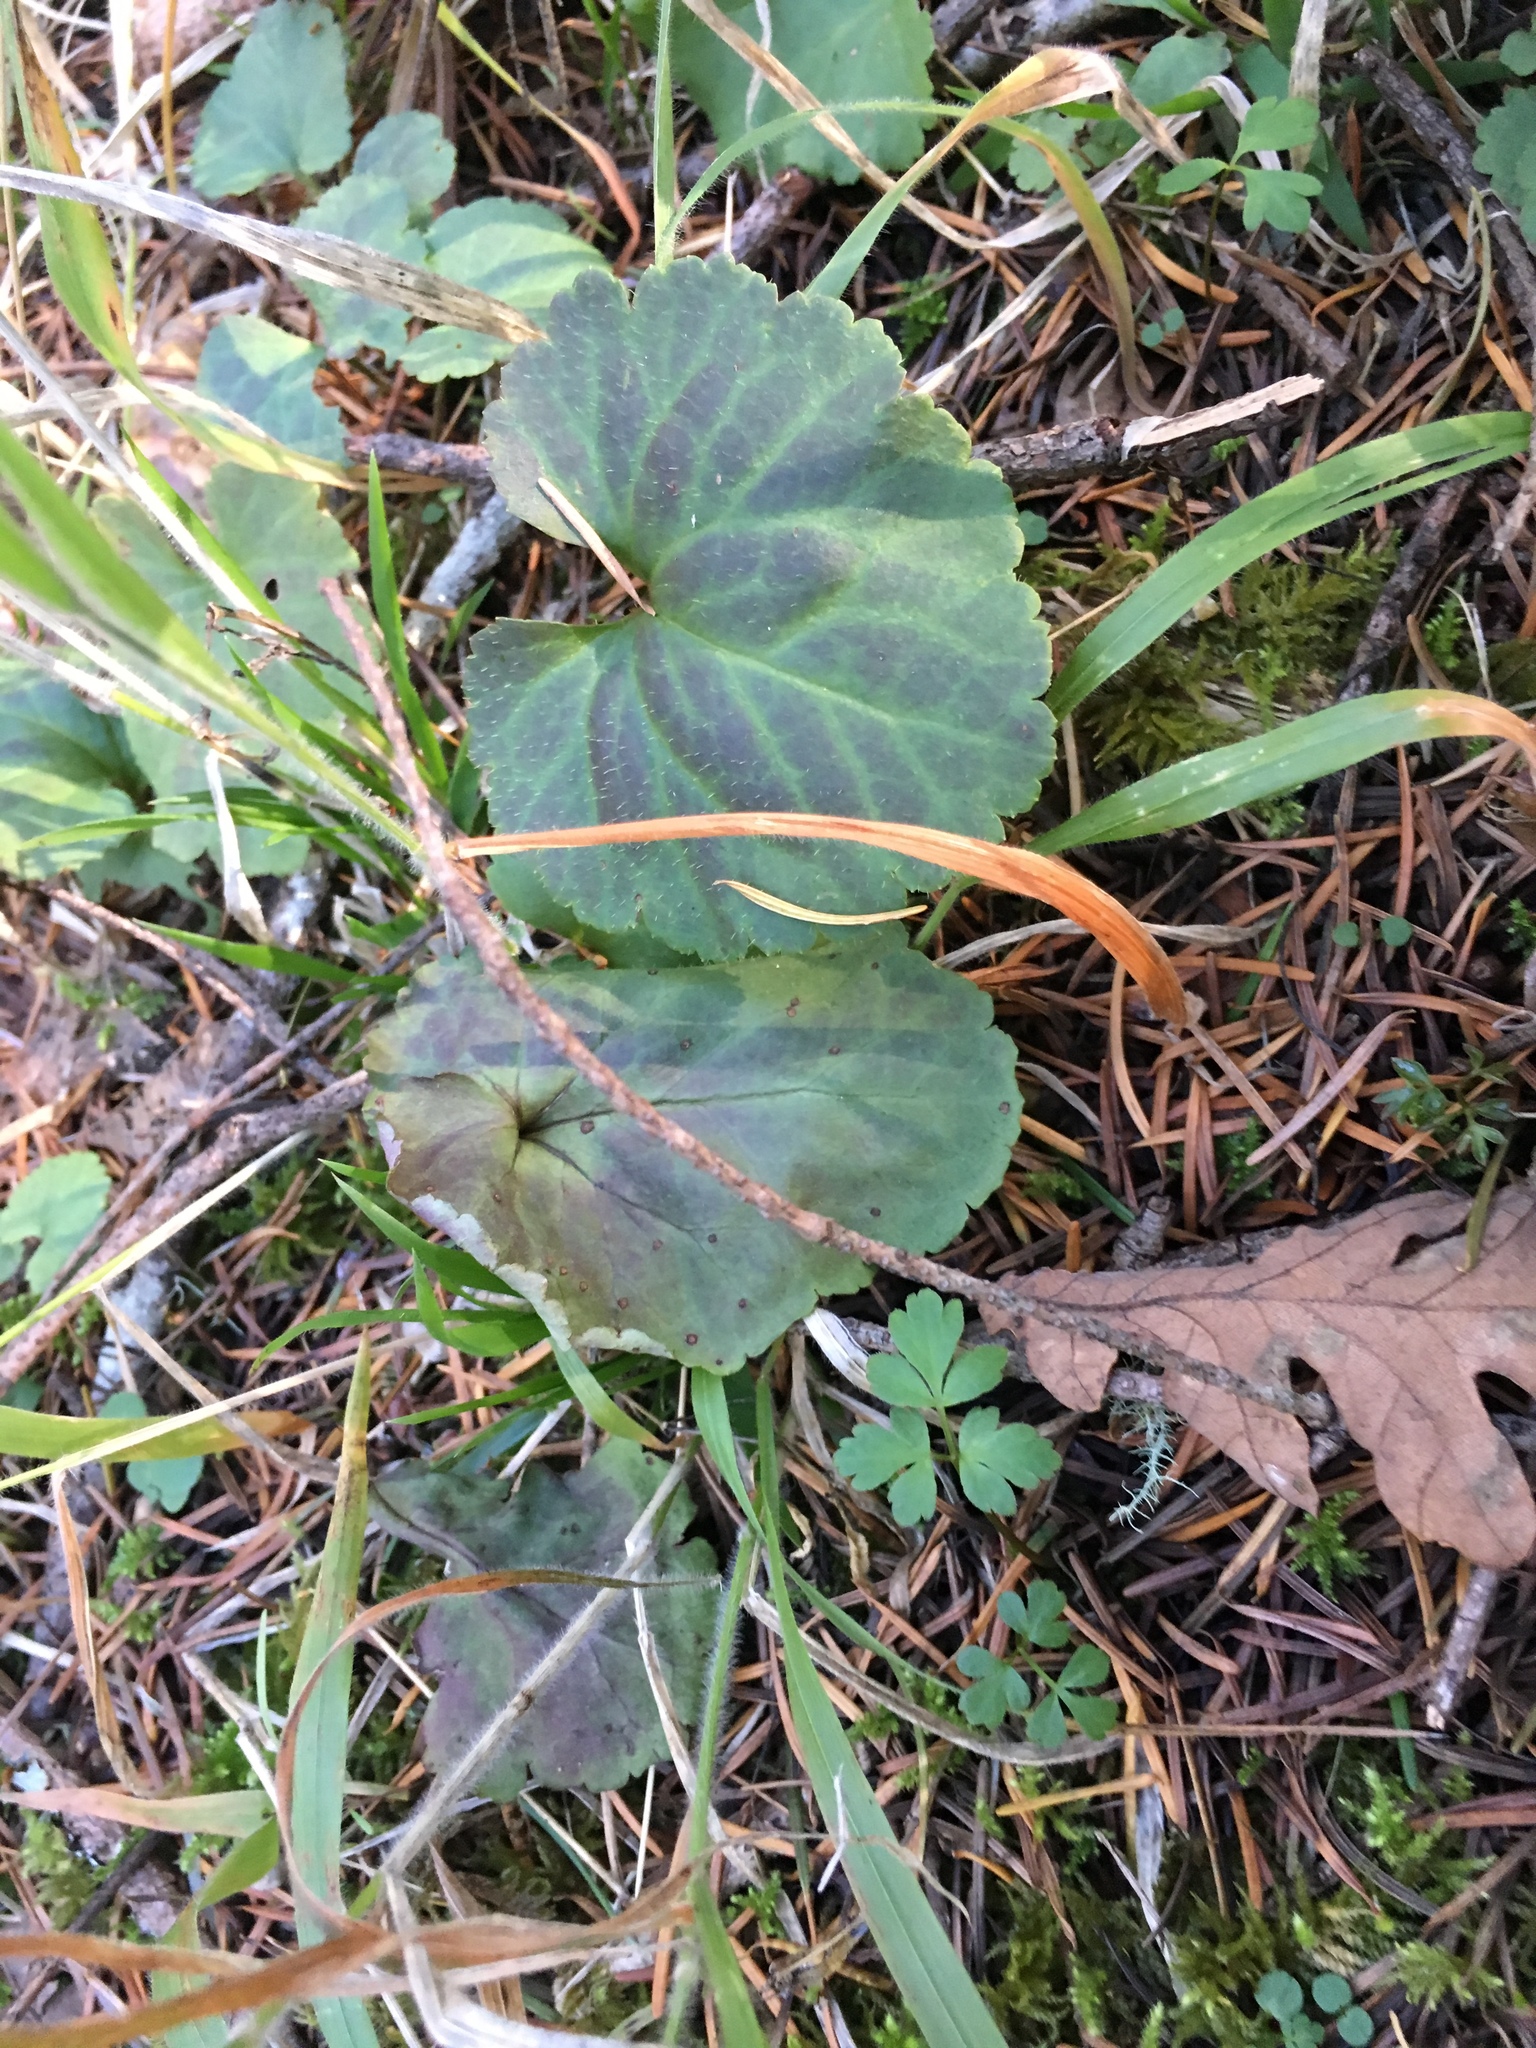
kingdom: Plantae
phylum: Tracheophyta
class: Magnoliopsida
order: Lamiales
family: Plantaginaceae
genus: Synthyris
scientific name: Synthyris reniformis
